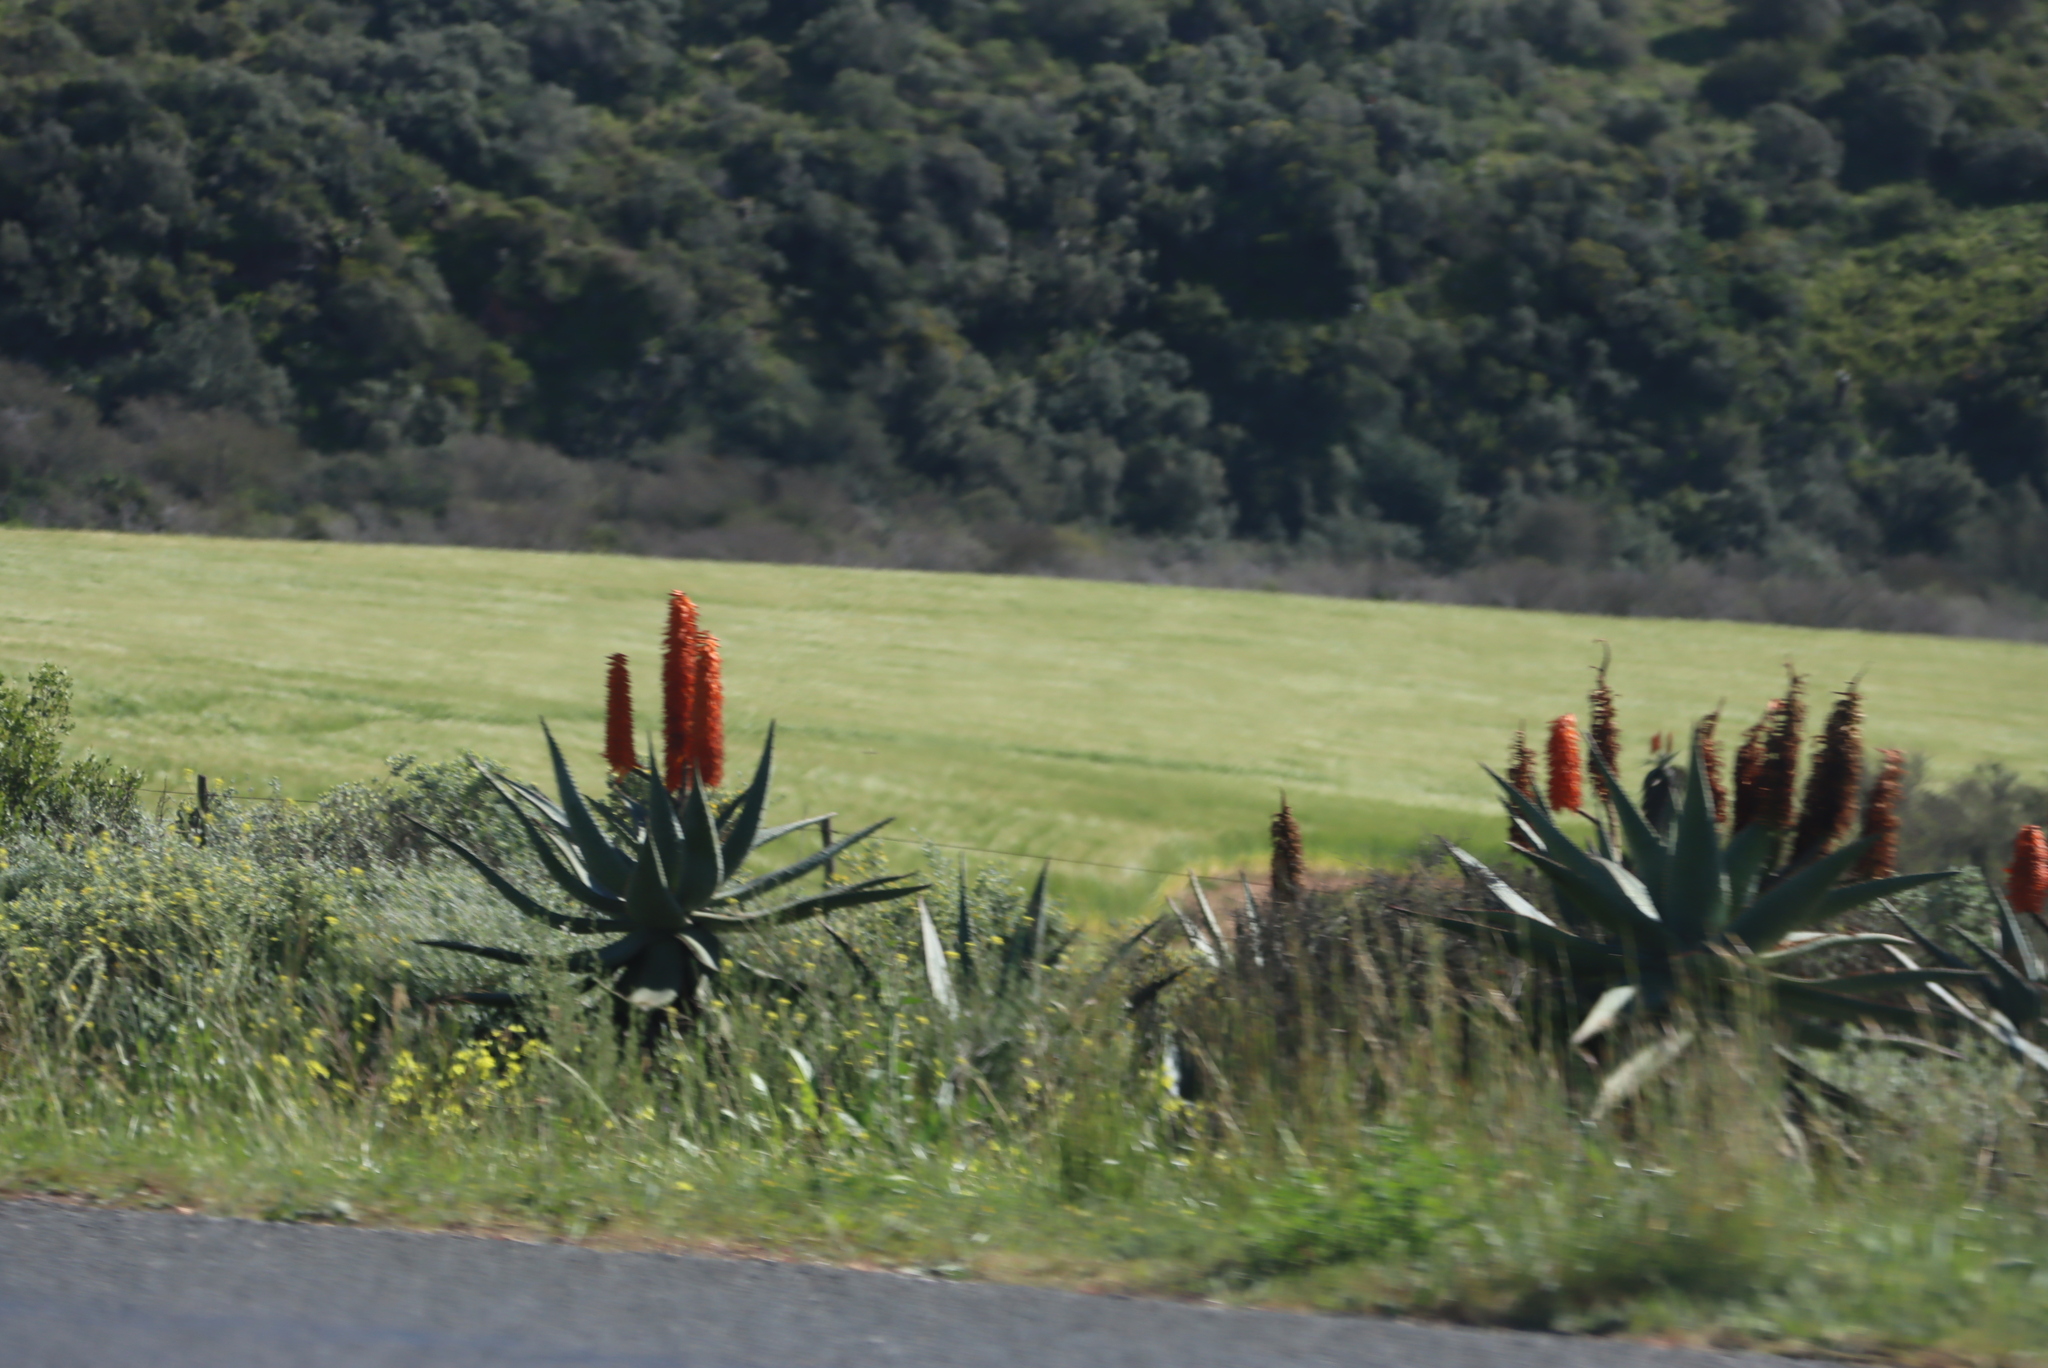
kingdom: Plantae
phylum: Tracheophyta
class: Liliopsida
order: Asparagales
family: Asphodelaceae
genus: Aloe
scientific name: Aloe ferox
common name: Bitter aloe
